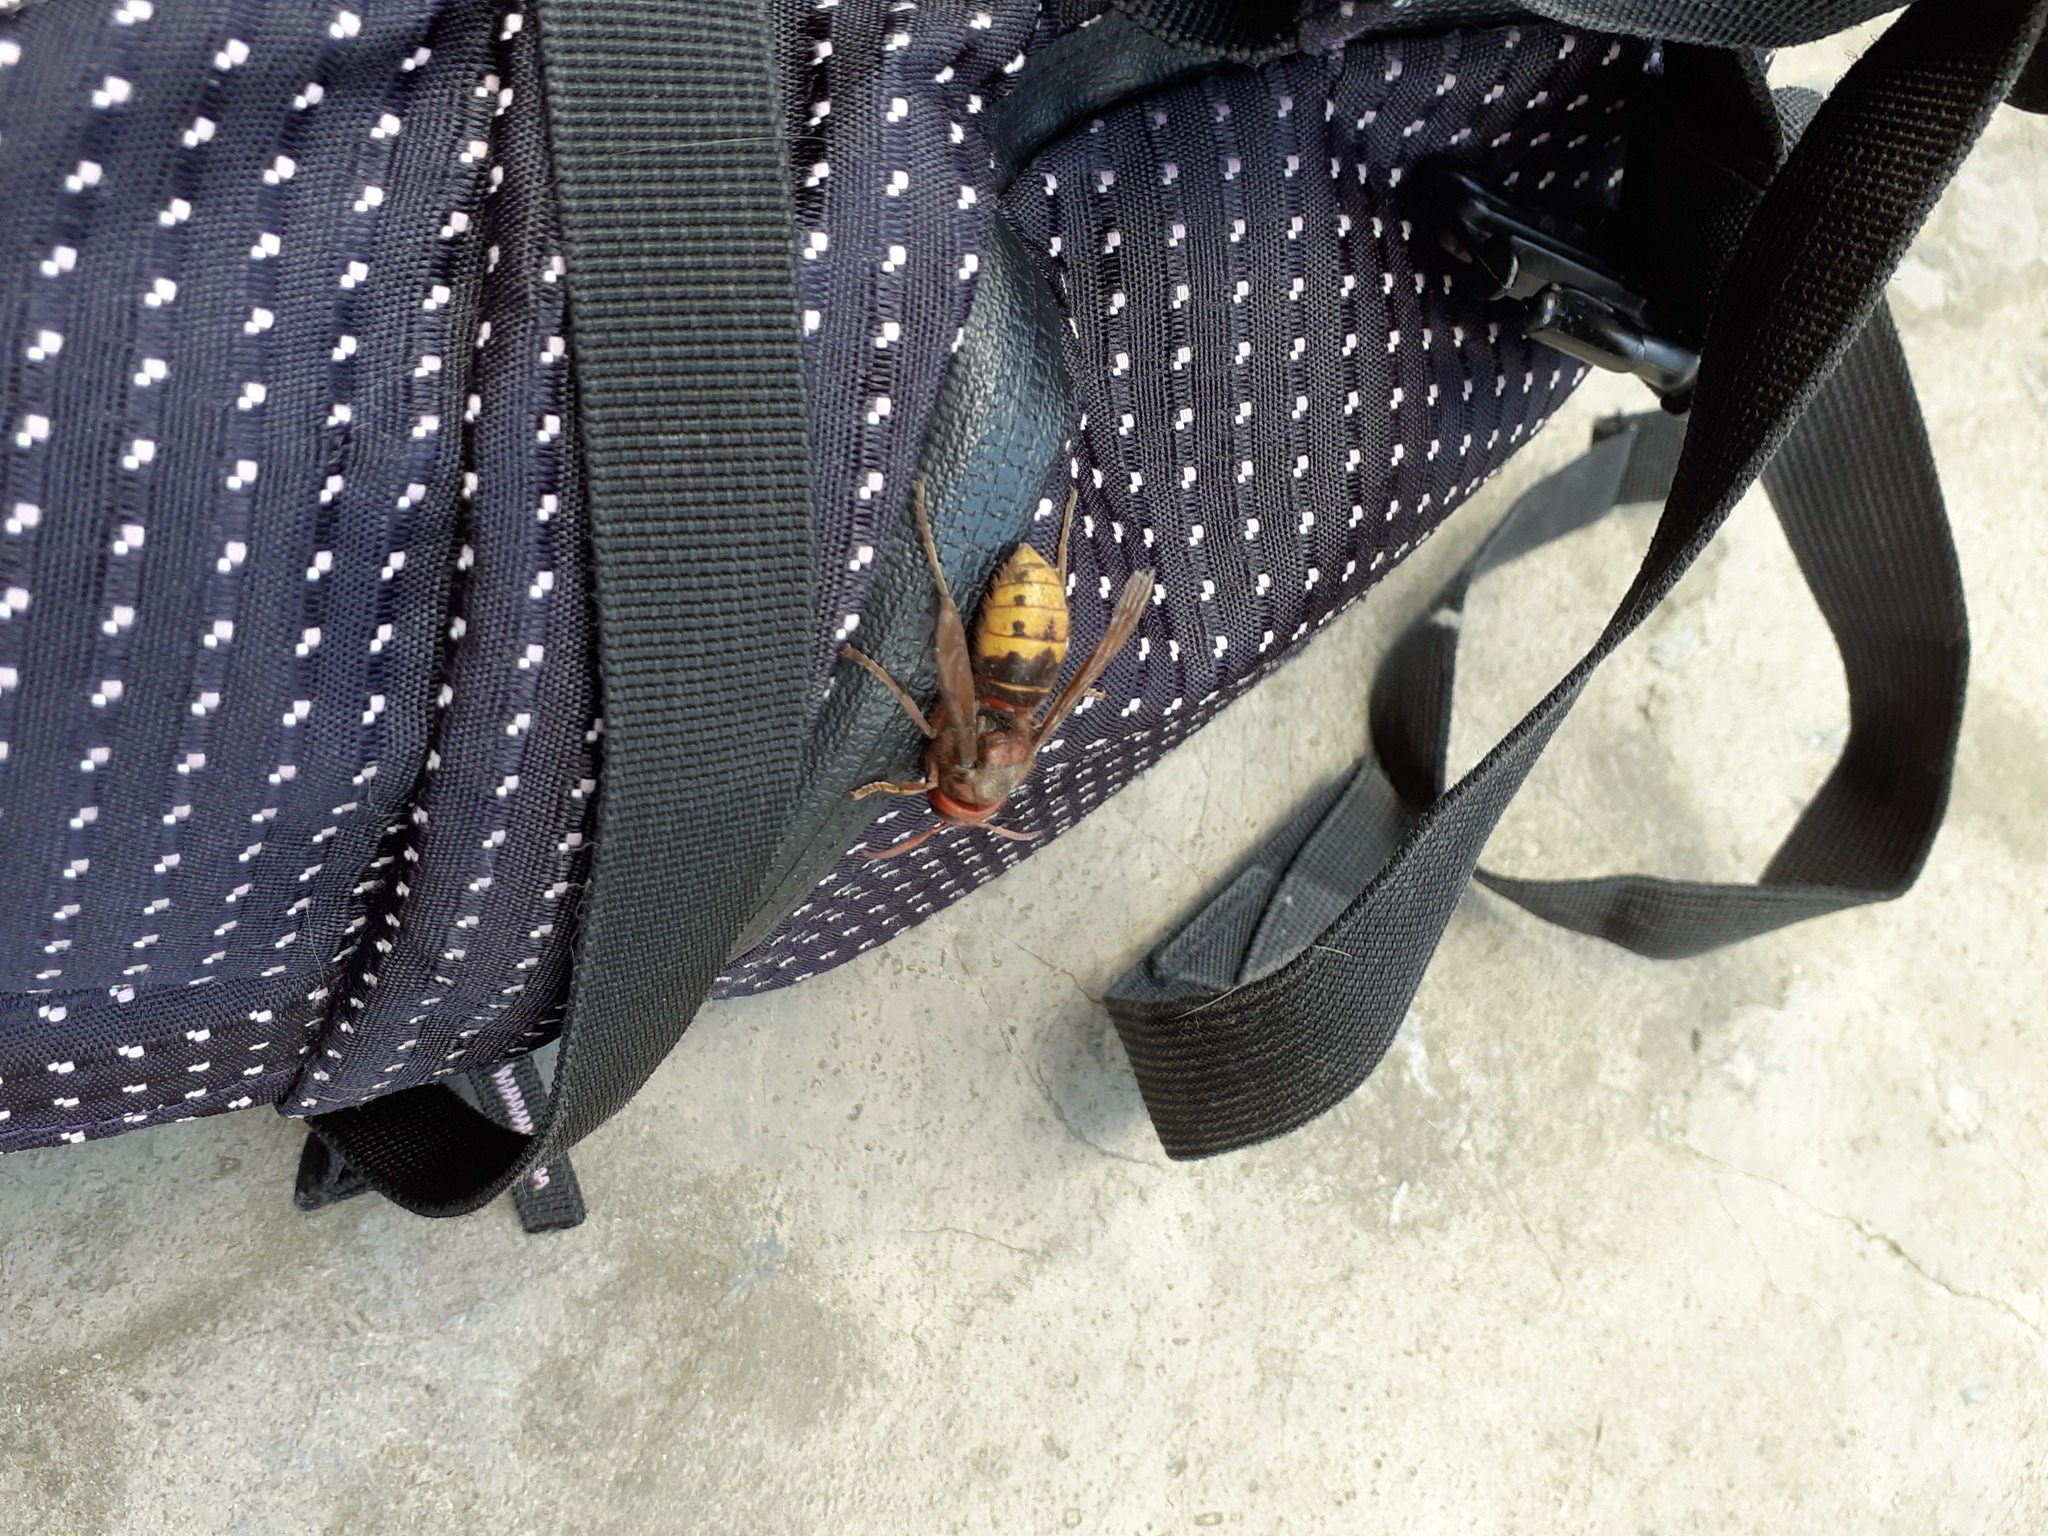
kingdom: Animalia
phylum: Arthropoda
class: Insecta
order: Hymenoptera
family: Vespidae
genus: Vespa
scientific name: Vespa crabro
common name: Hornet
